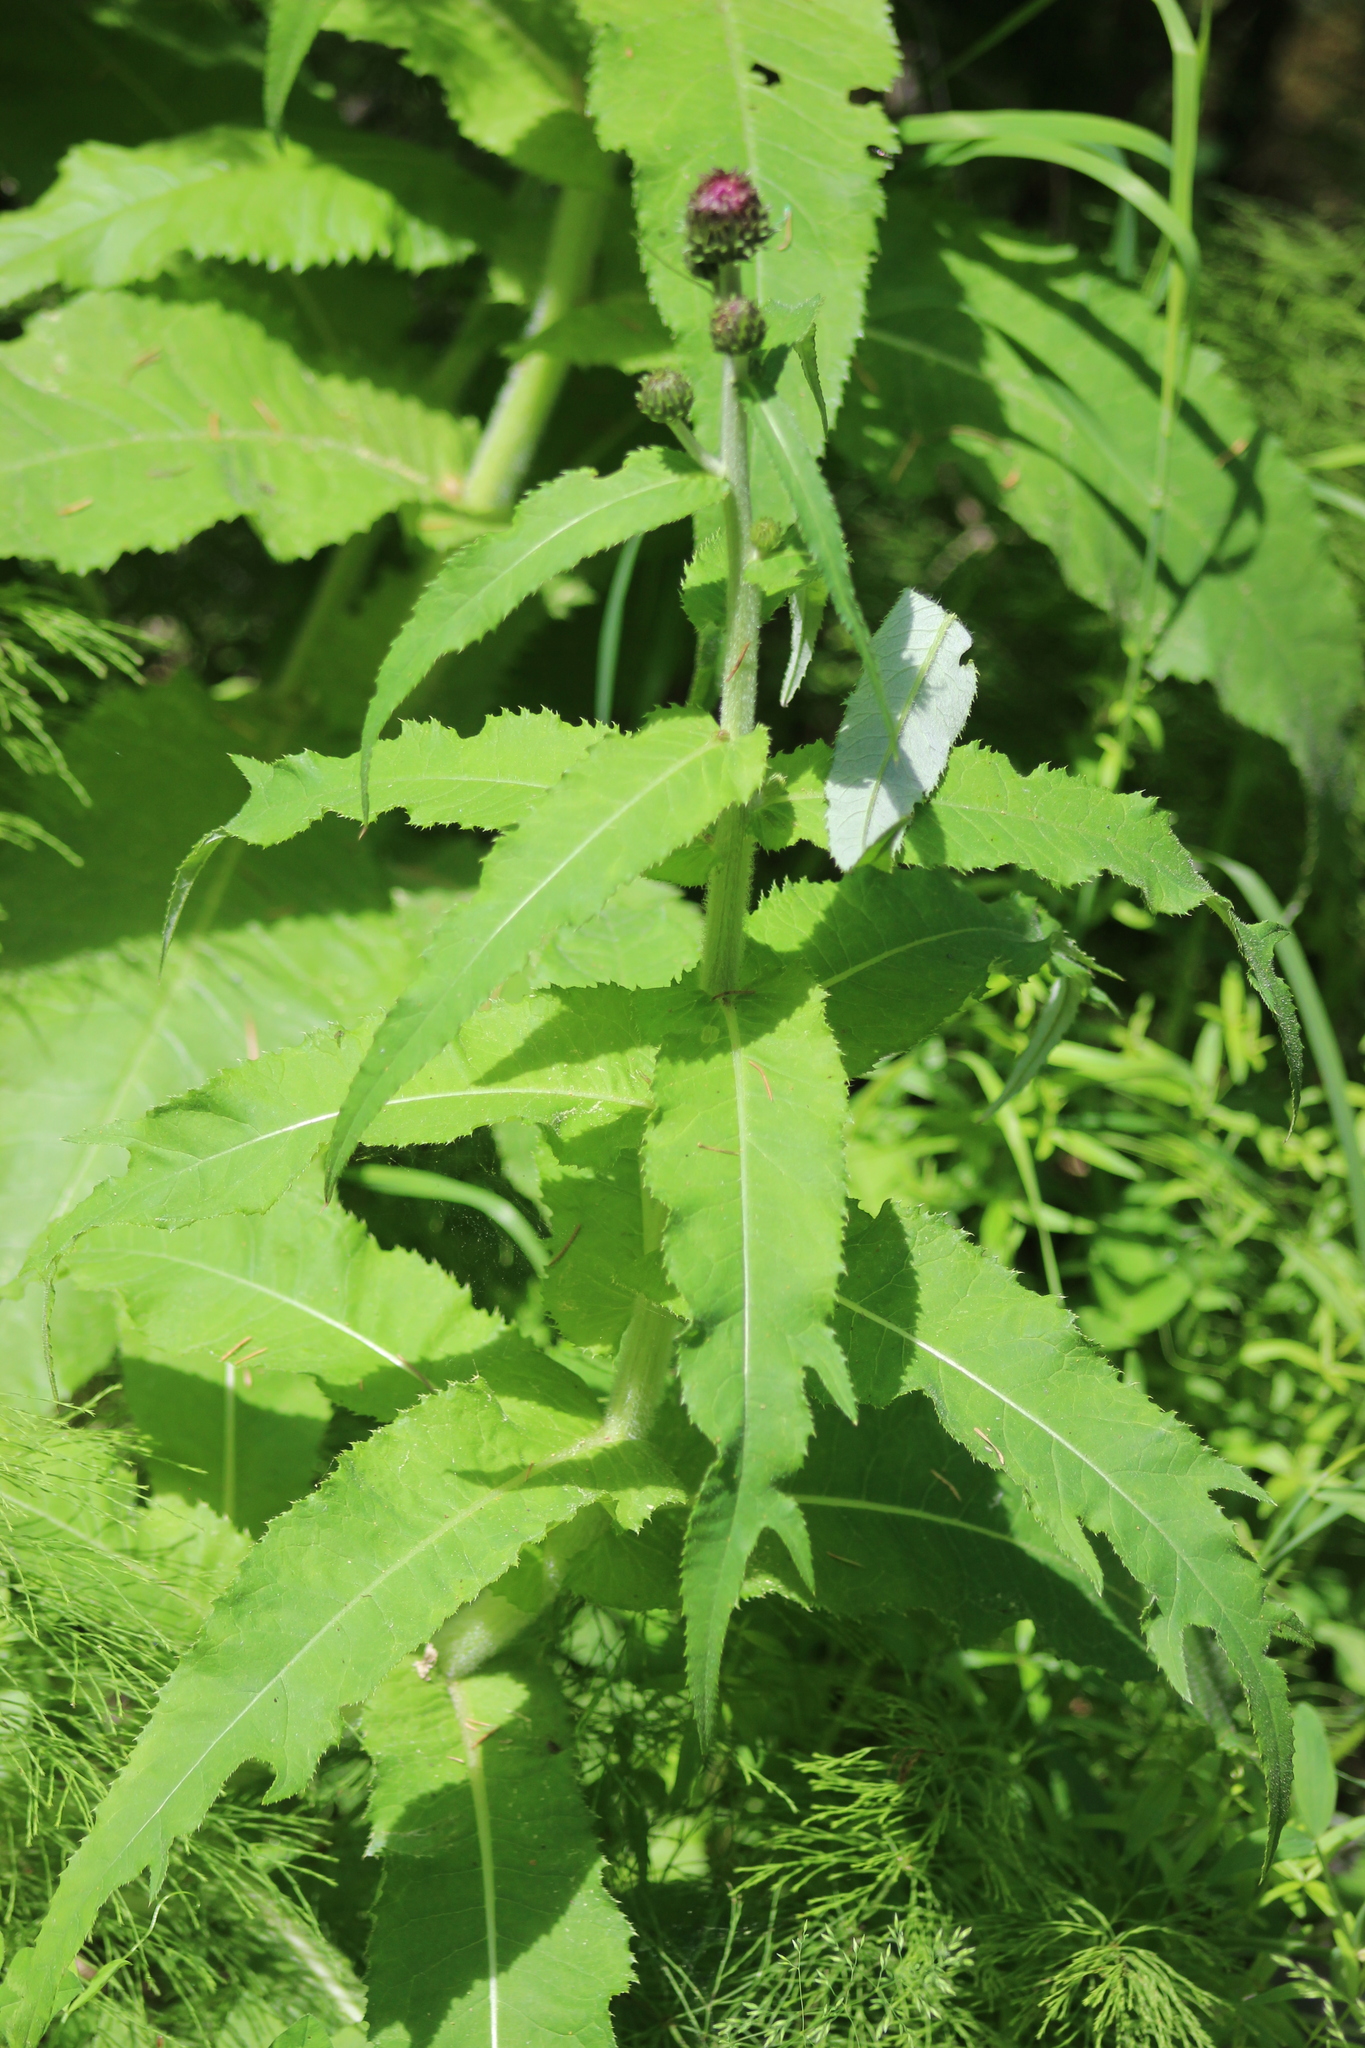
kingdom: Plantae
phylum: Tracheophyta
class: Magnoliopsida
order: Asterales
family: Asteraceae
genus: Cirsium
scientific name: Cirsium heterophyllum
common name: Melancholy thistle
